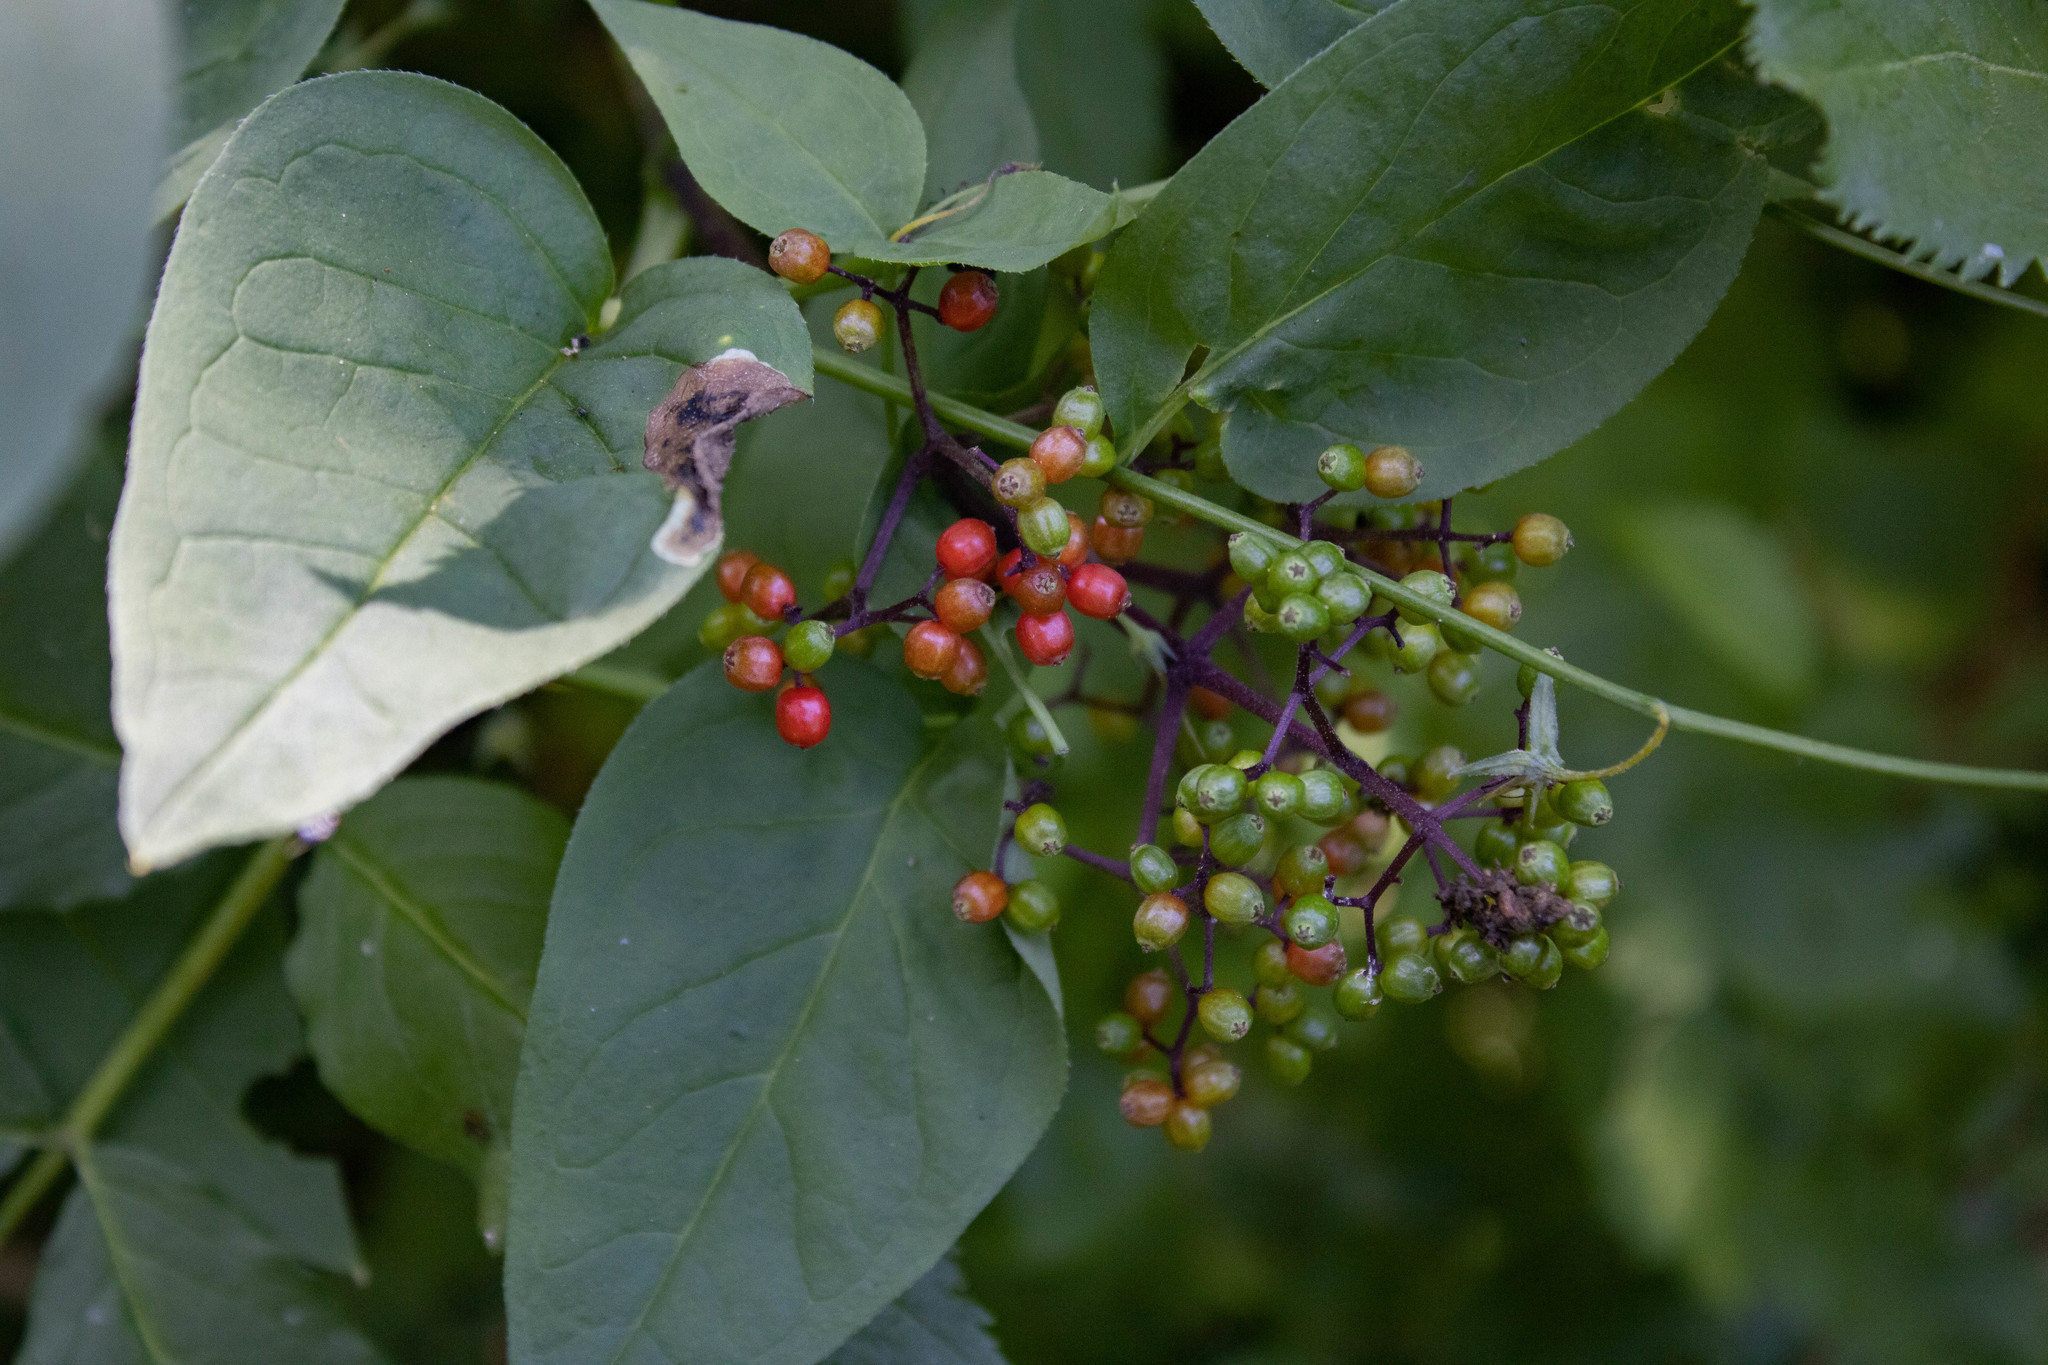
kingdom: Plantae
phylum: Tracheophyta
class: Magnoliopsida
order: Dipsacales
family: Viburnaceae
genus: Sambucus
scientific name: Sambucus racemosa
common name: Red-berried elder
